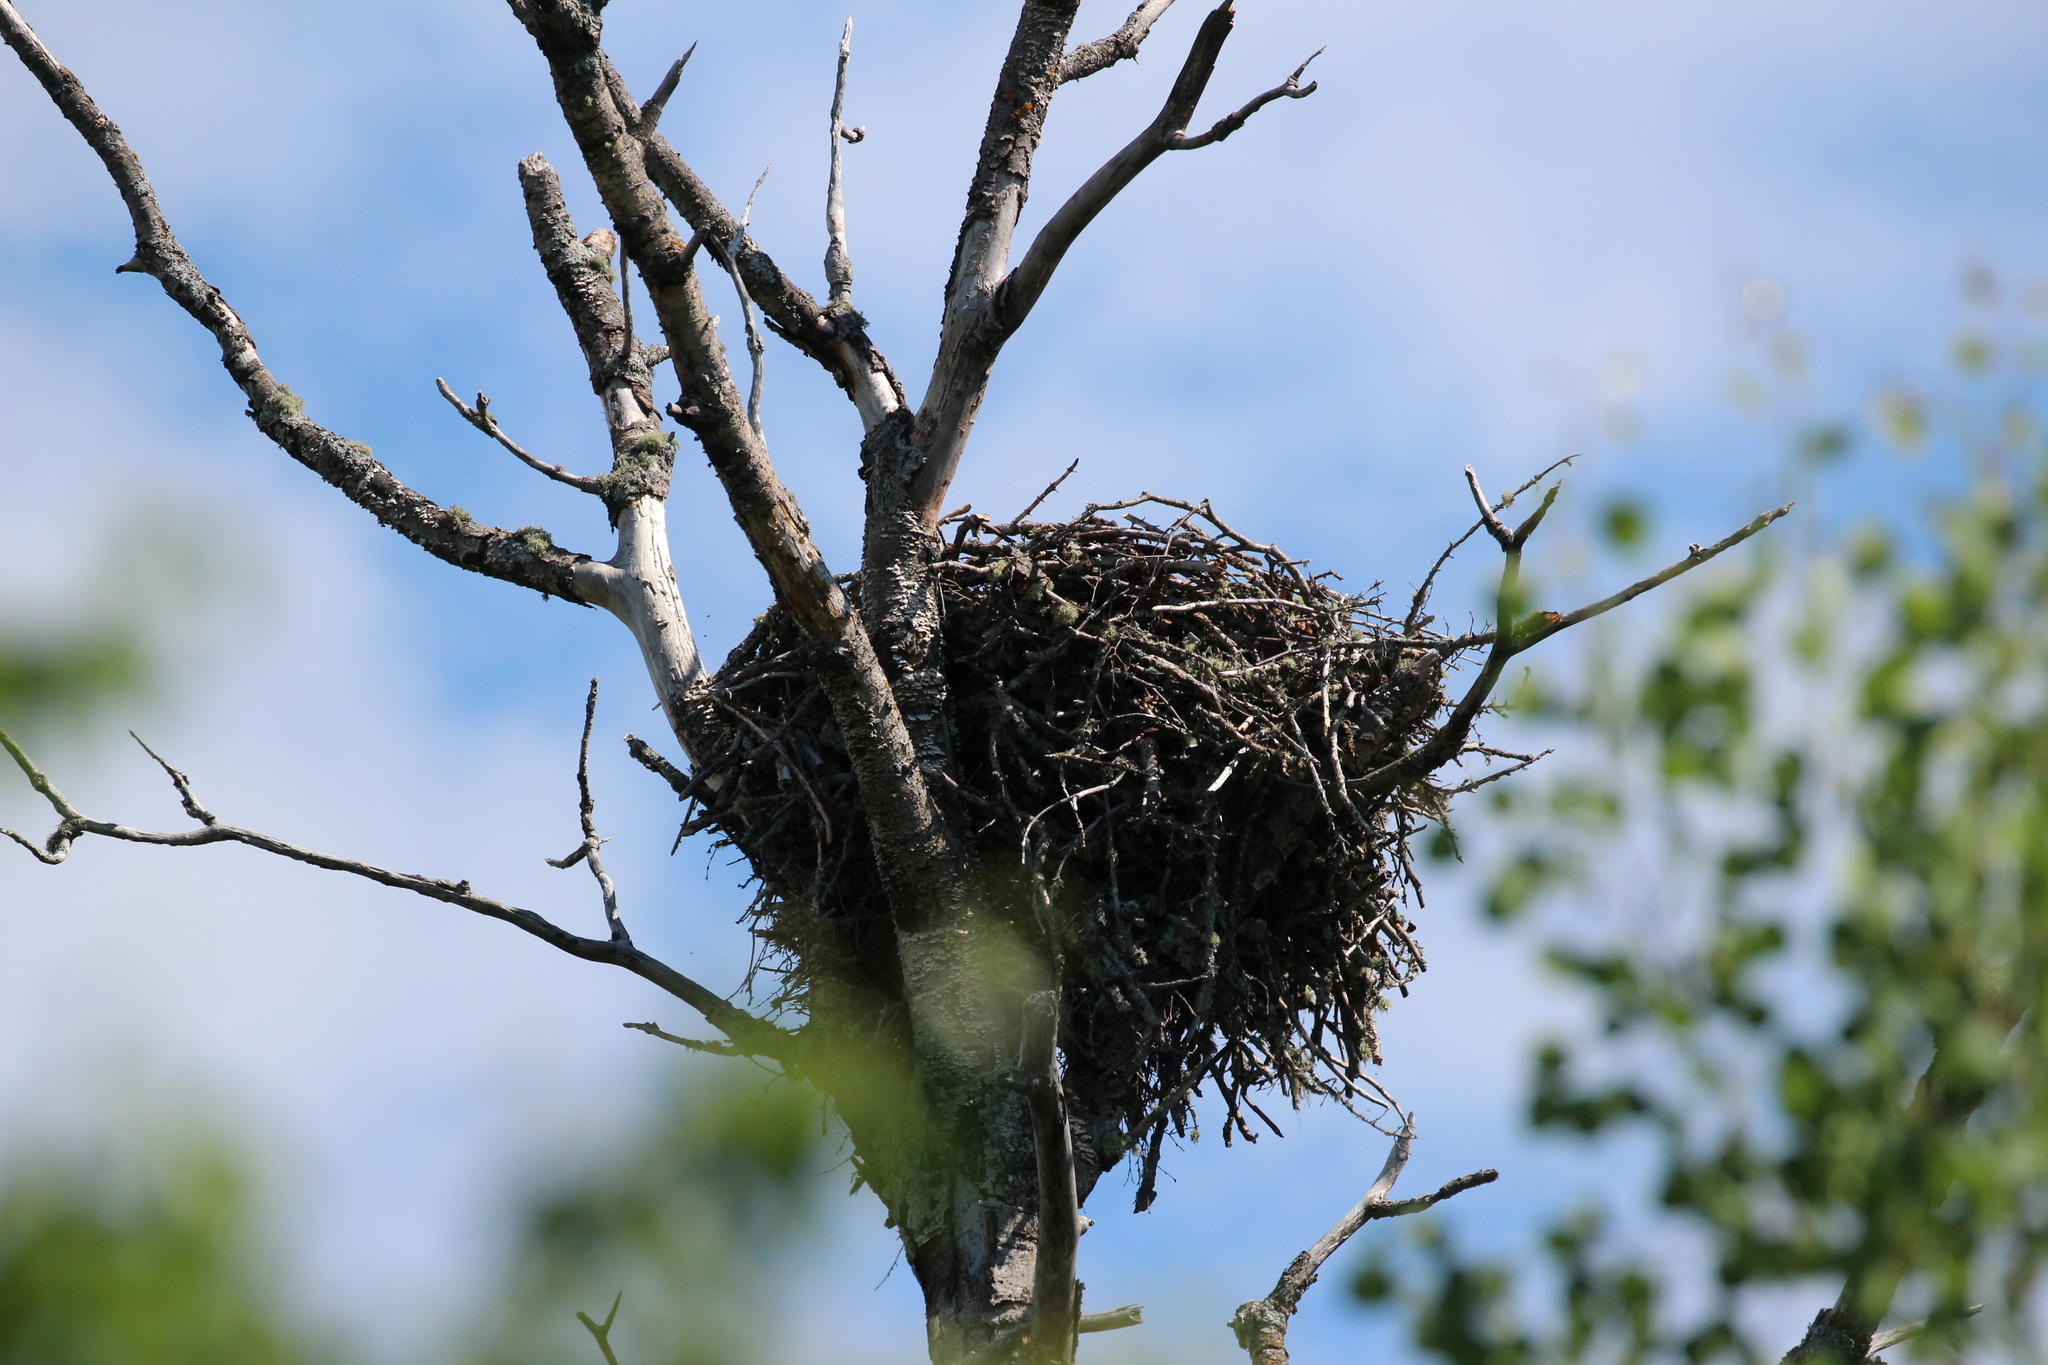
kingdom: Animalia
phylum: Chordata
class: Aves
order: Accipitriformes
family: Pandionidae
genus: Pandion
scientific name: Pandion haliaetus
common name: Osprey
